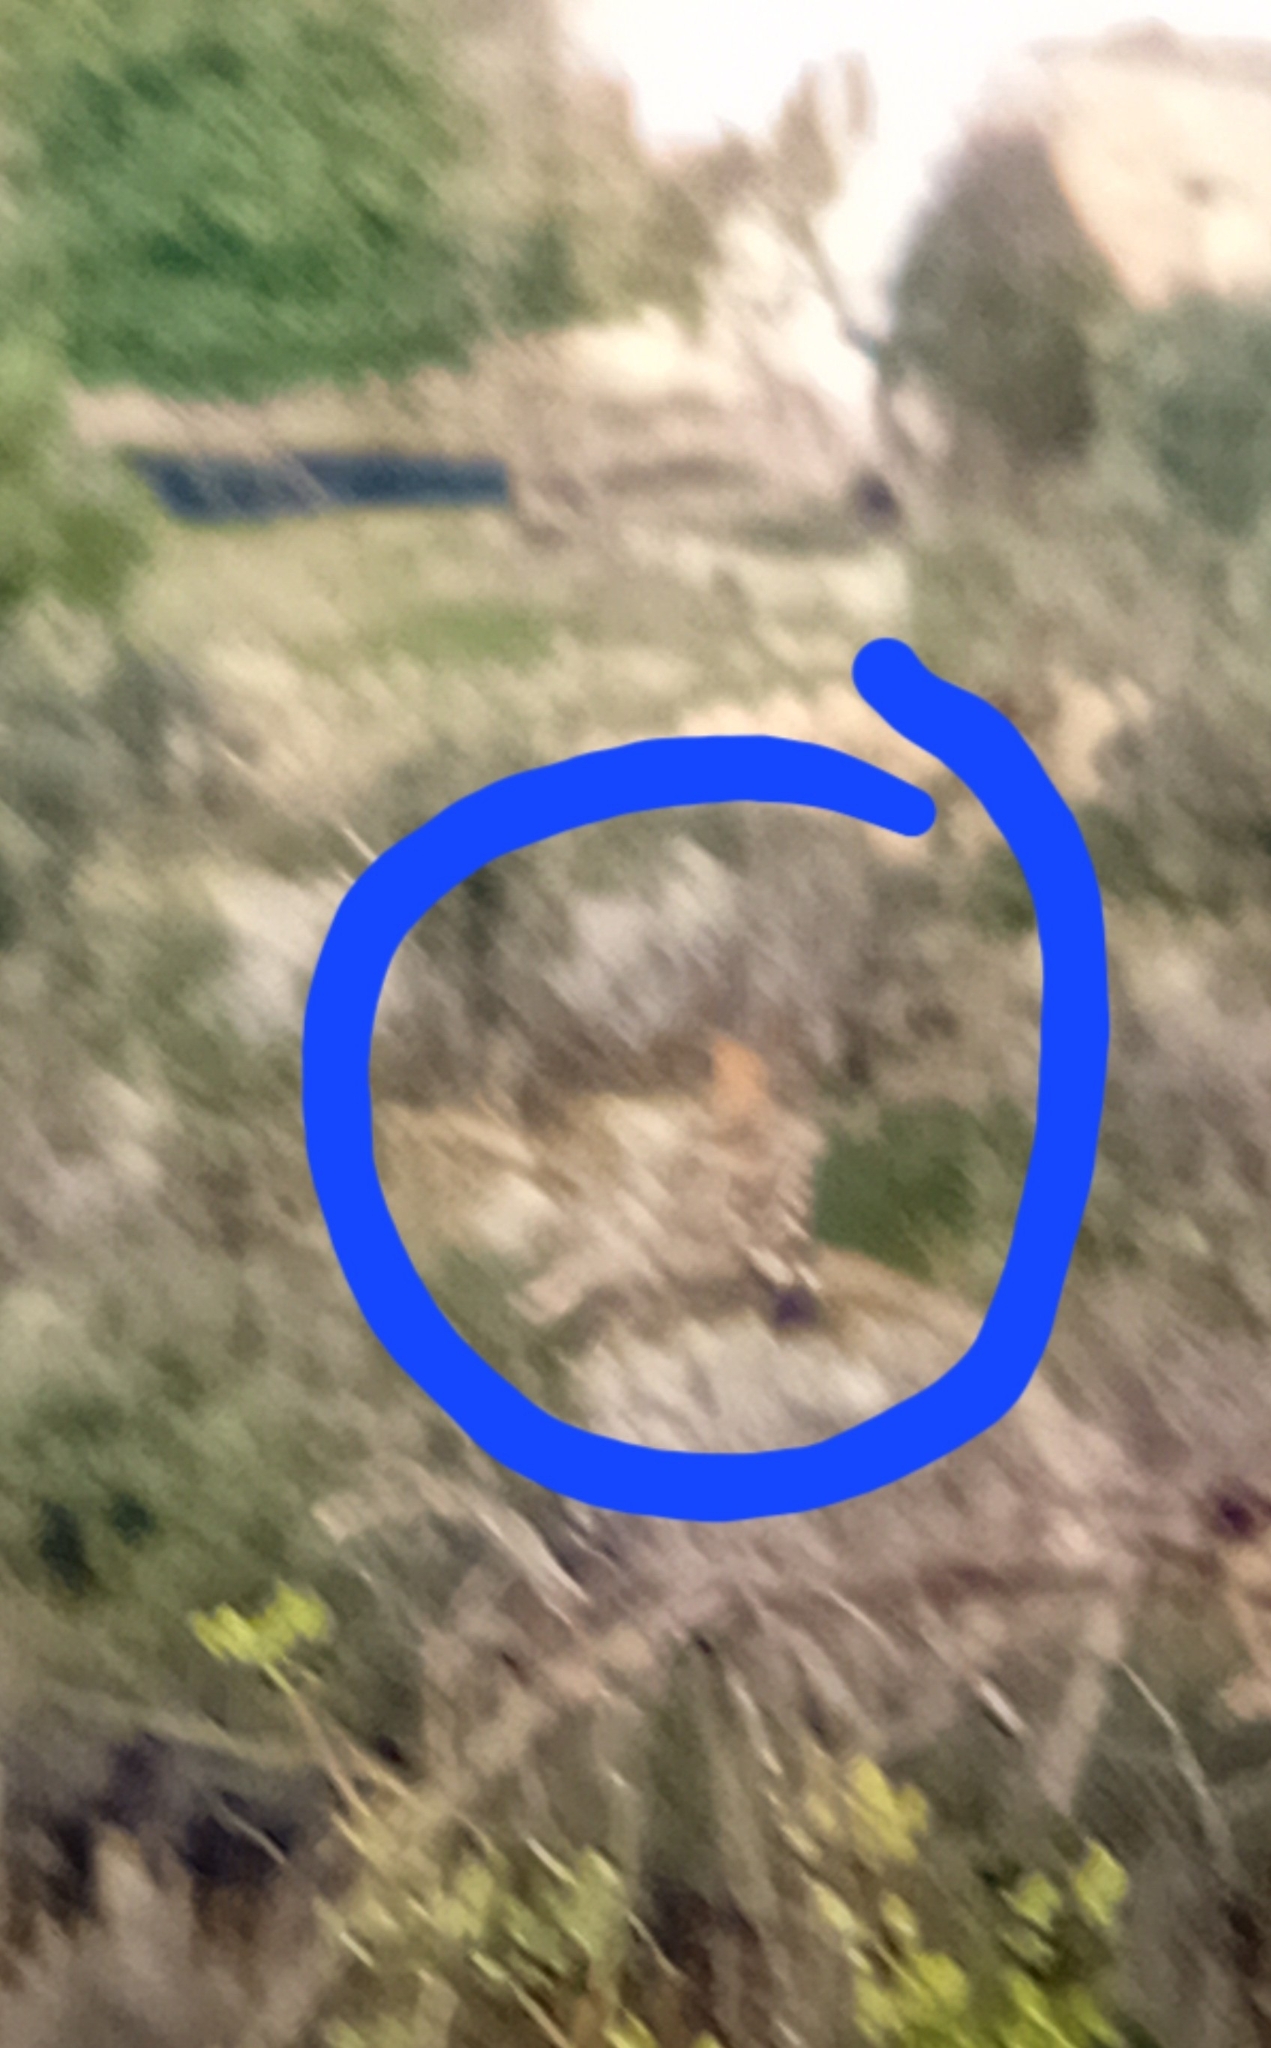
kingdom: Animalia
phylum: Chordata
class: Aves
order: Bucerotiformes
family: Upupidae
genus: Upupa
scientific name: Upupa epops
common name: Eurasian hoopoe
